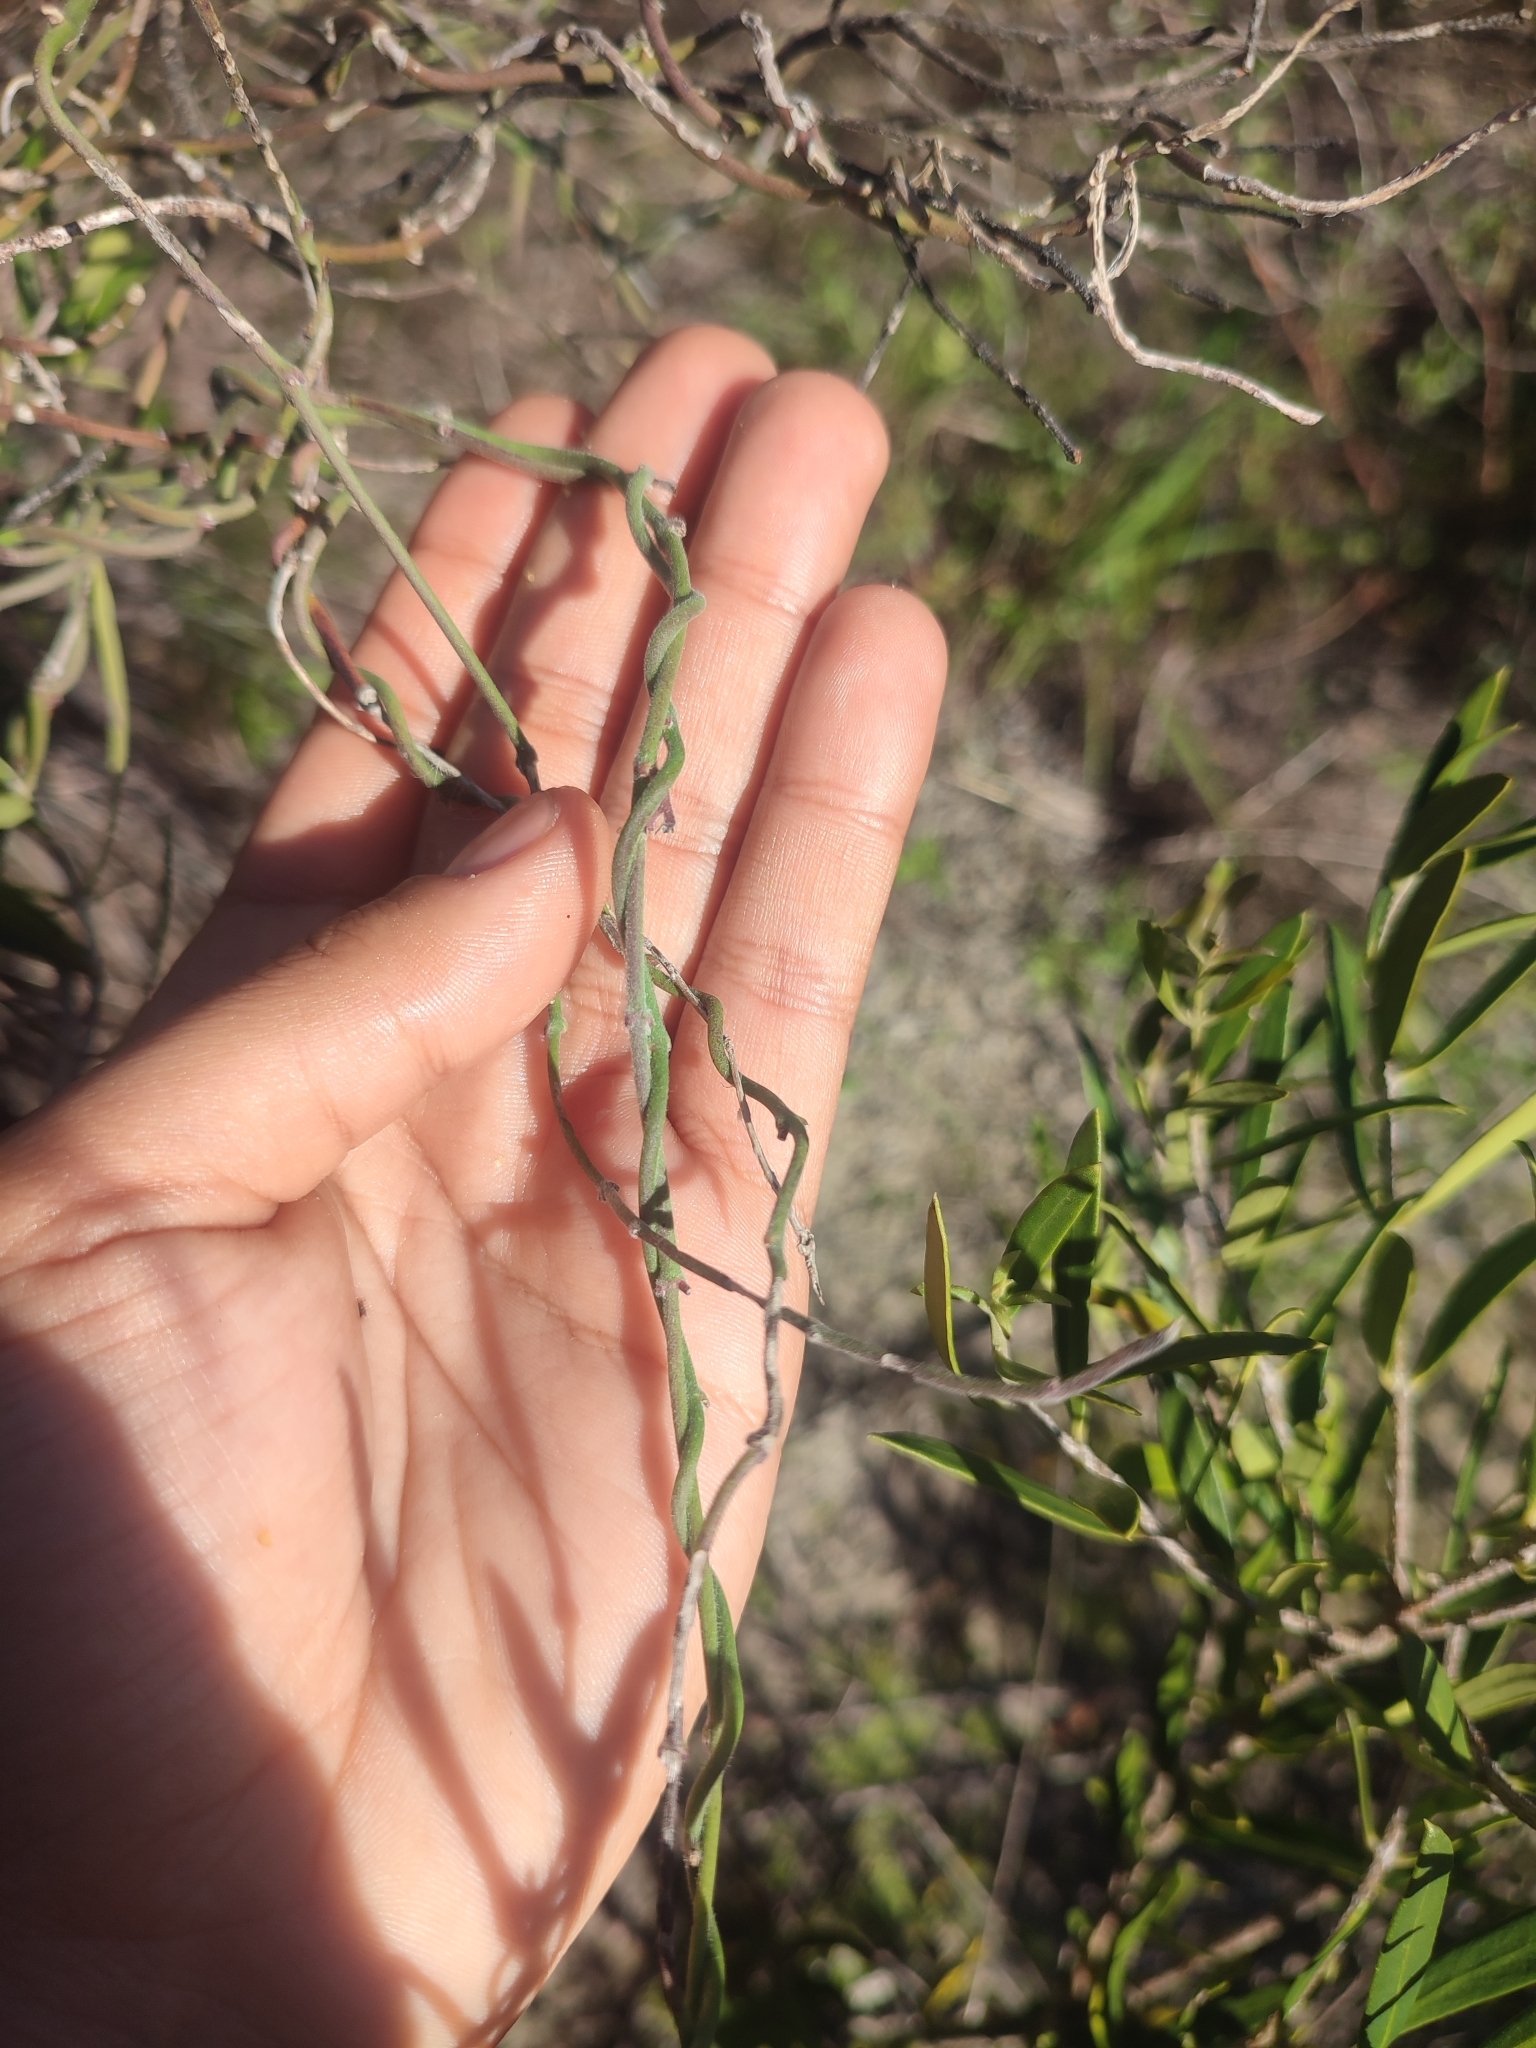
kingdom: Plantae
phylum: Tracheophyta
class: Magnoliopsida
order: Gentianales
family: Apocynaceae
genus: Microloma
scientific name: Microloma sagittatum
